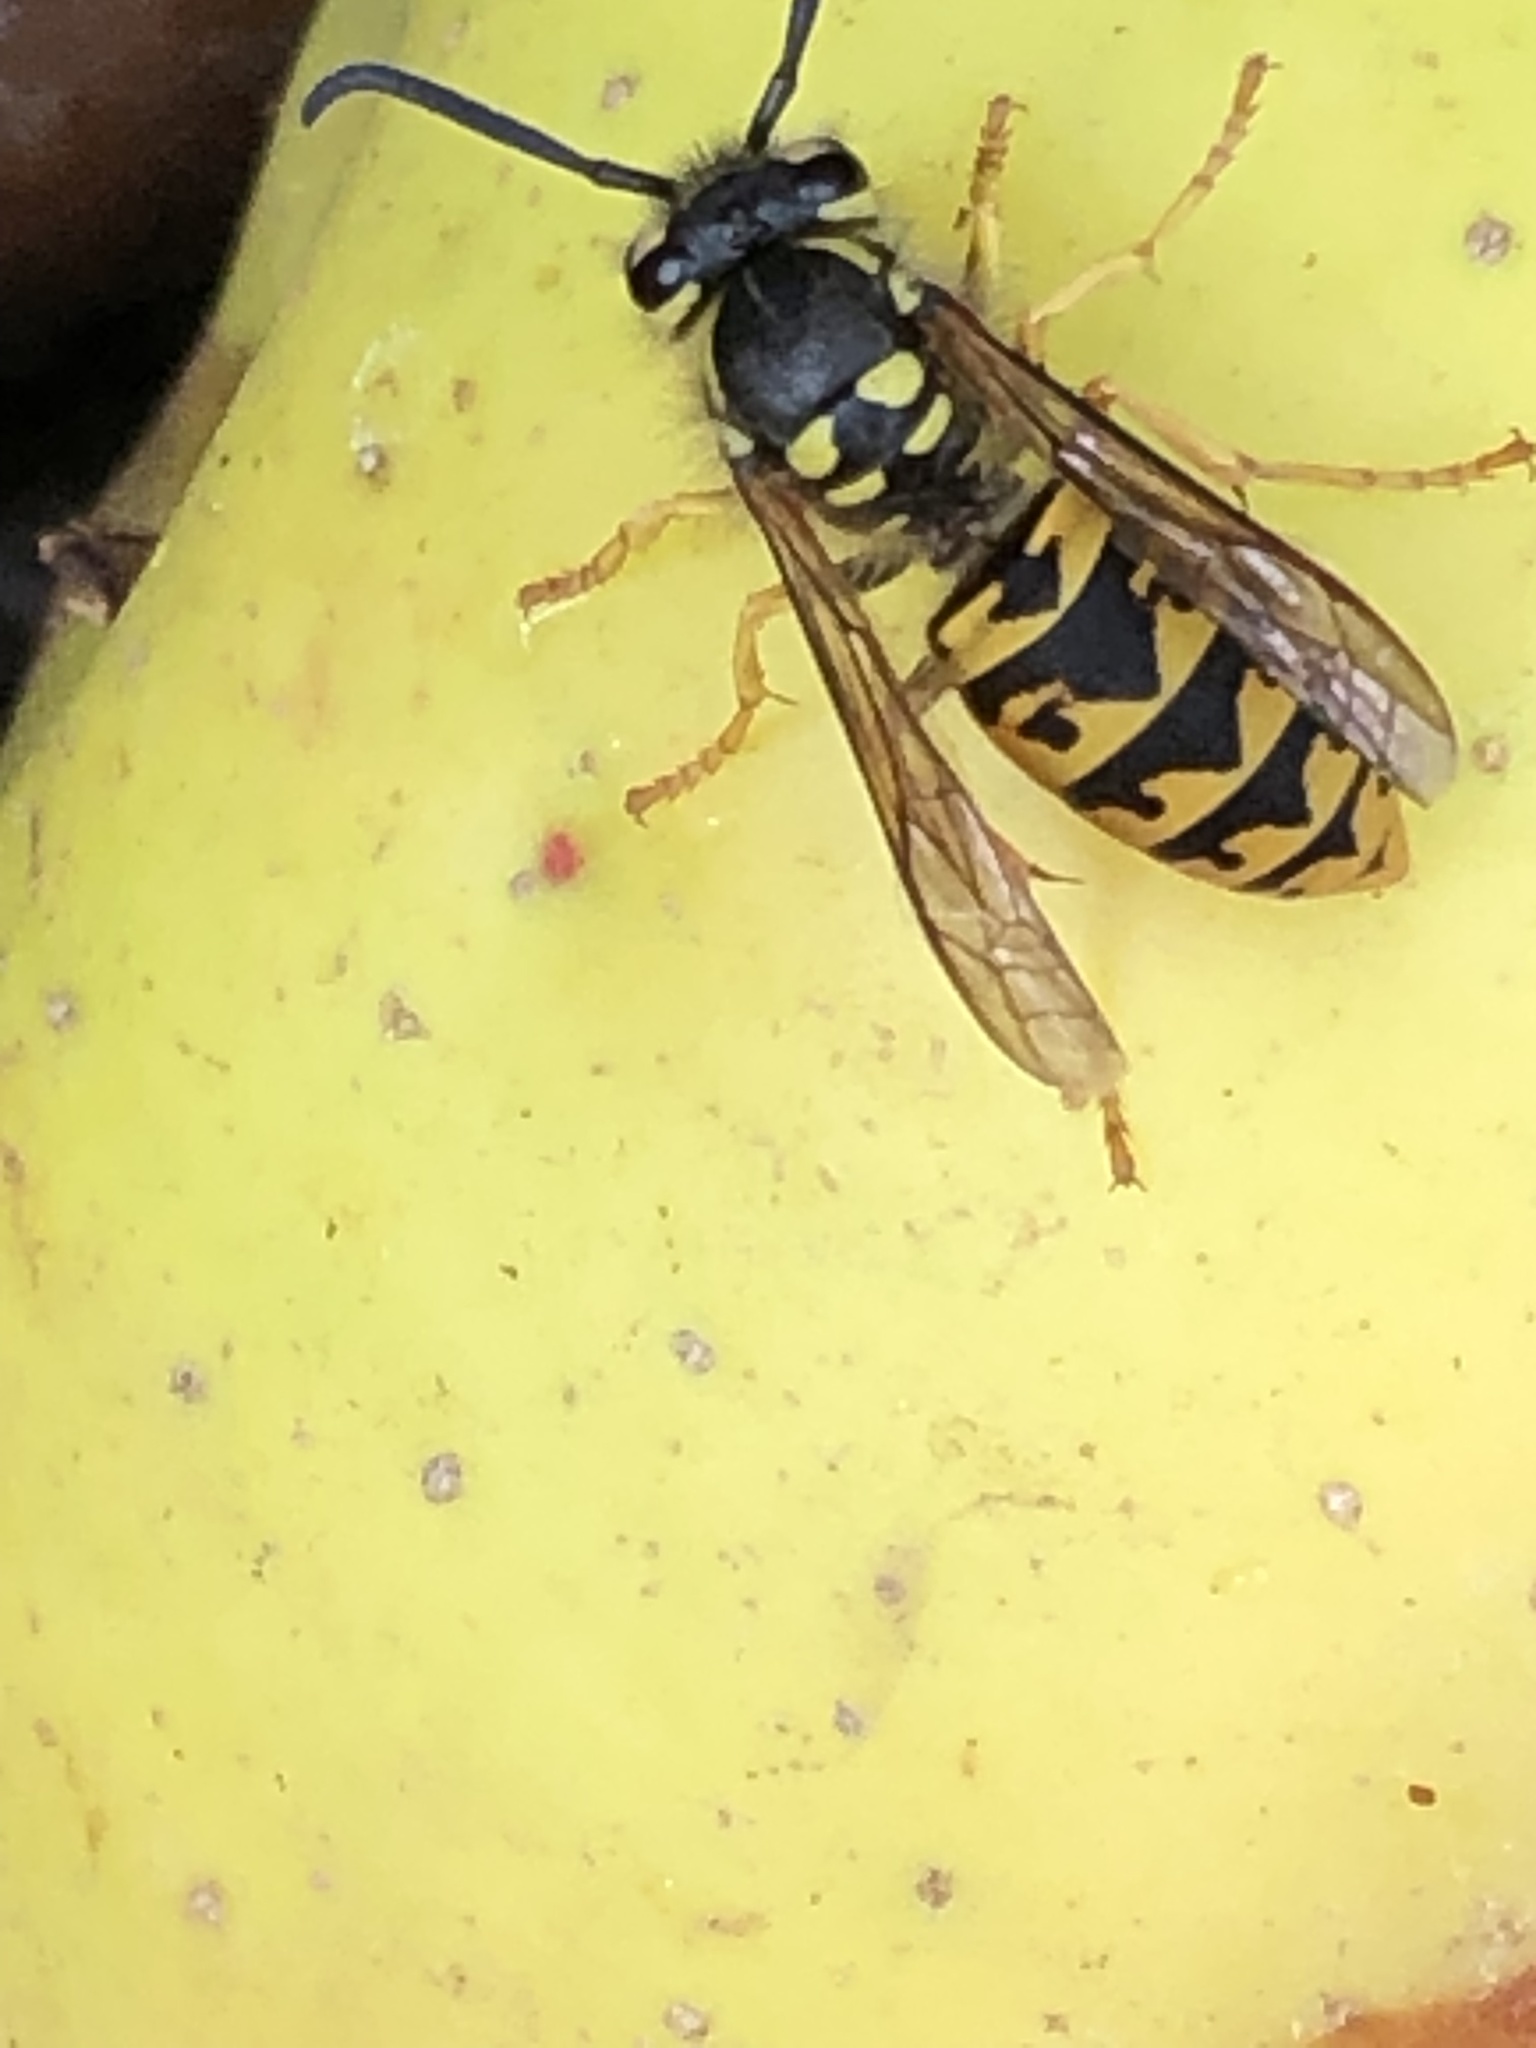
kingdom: Animalia
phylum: Arthropoda
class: Insecta
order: Hymenoptera
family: Vespidae
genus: Vespula
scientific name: Vespula germanica
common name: German wasp
